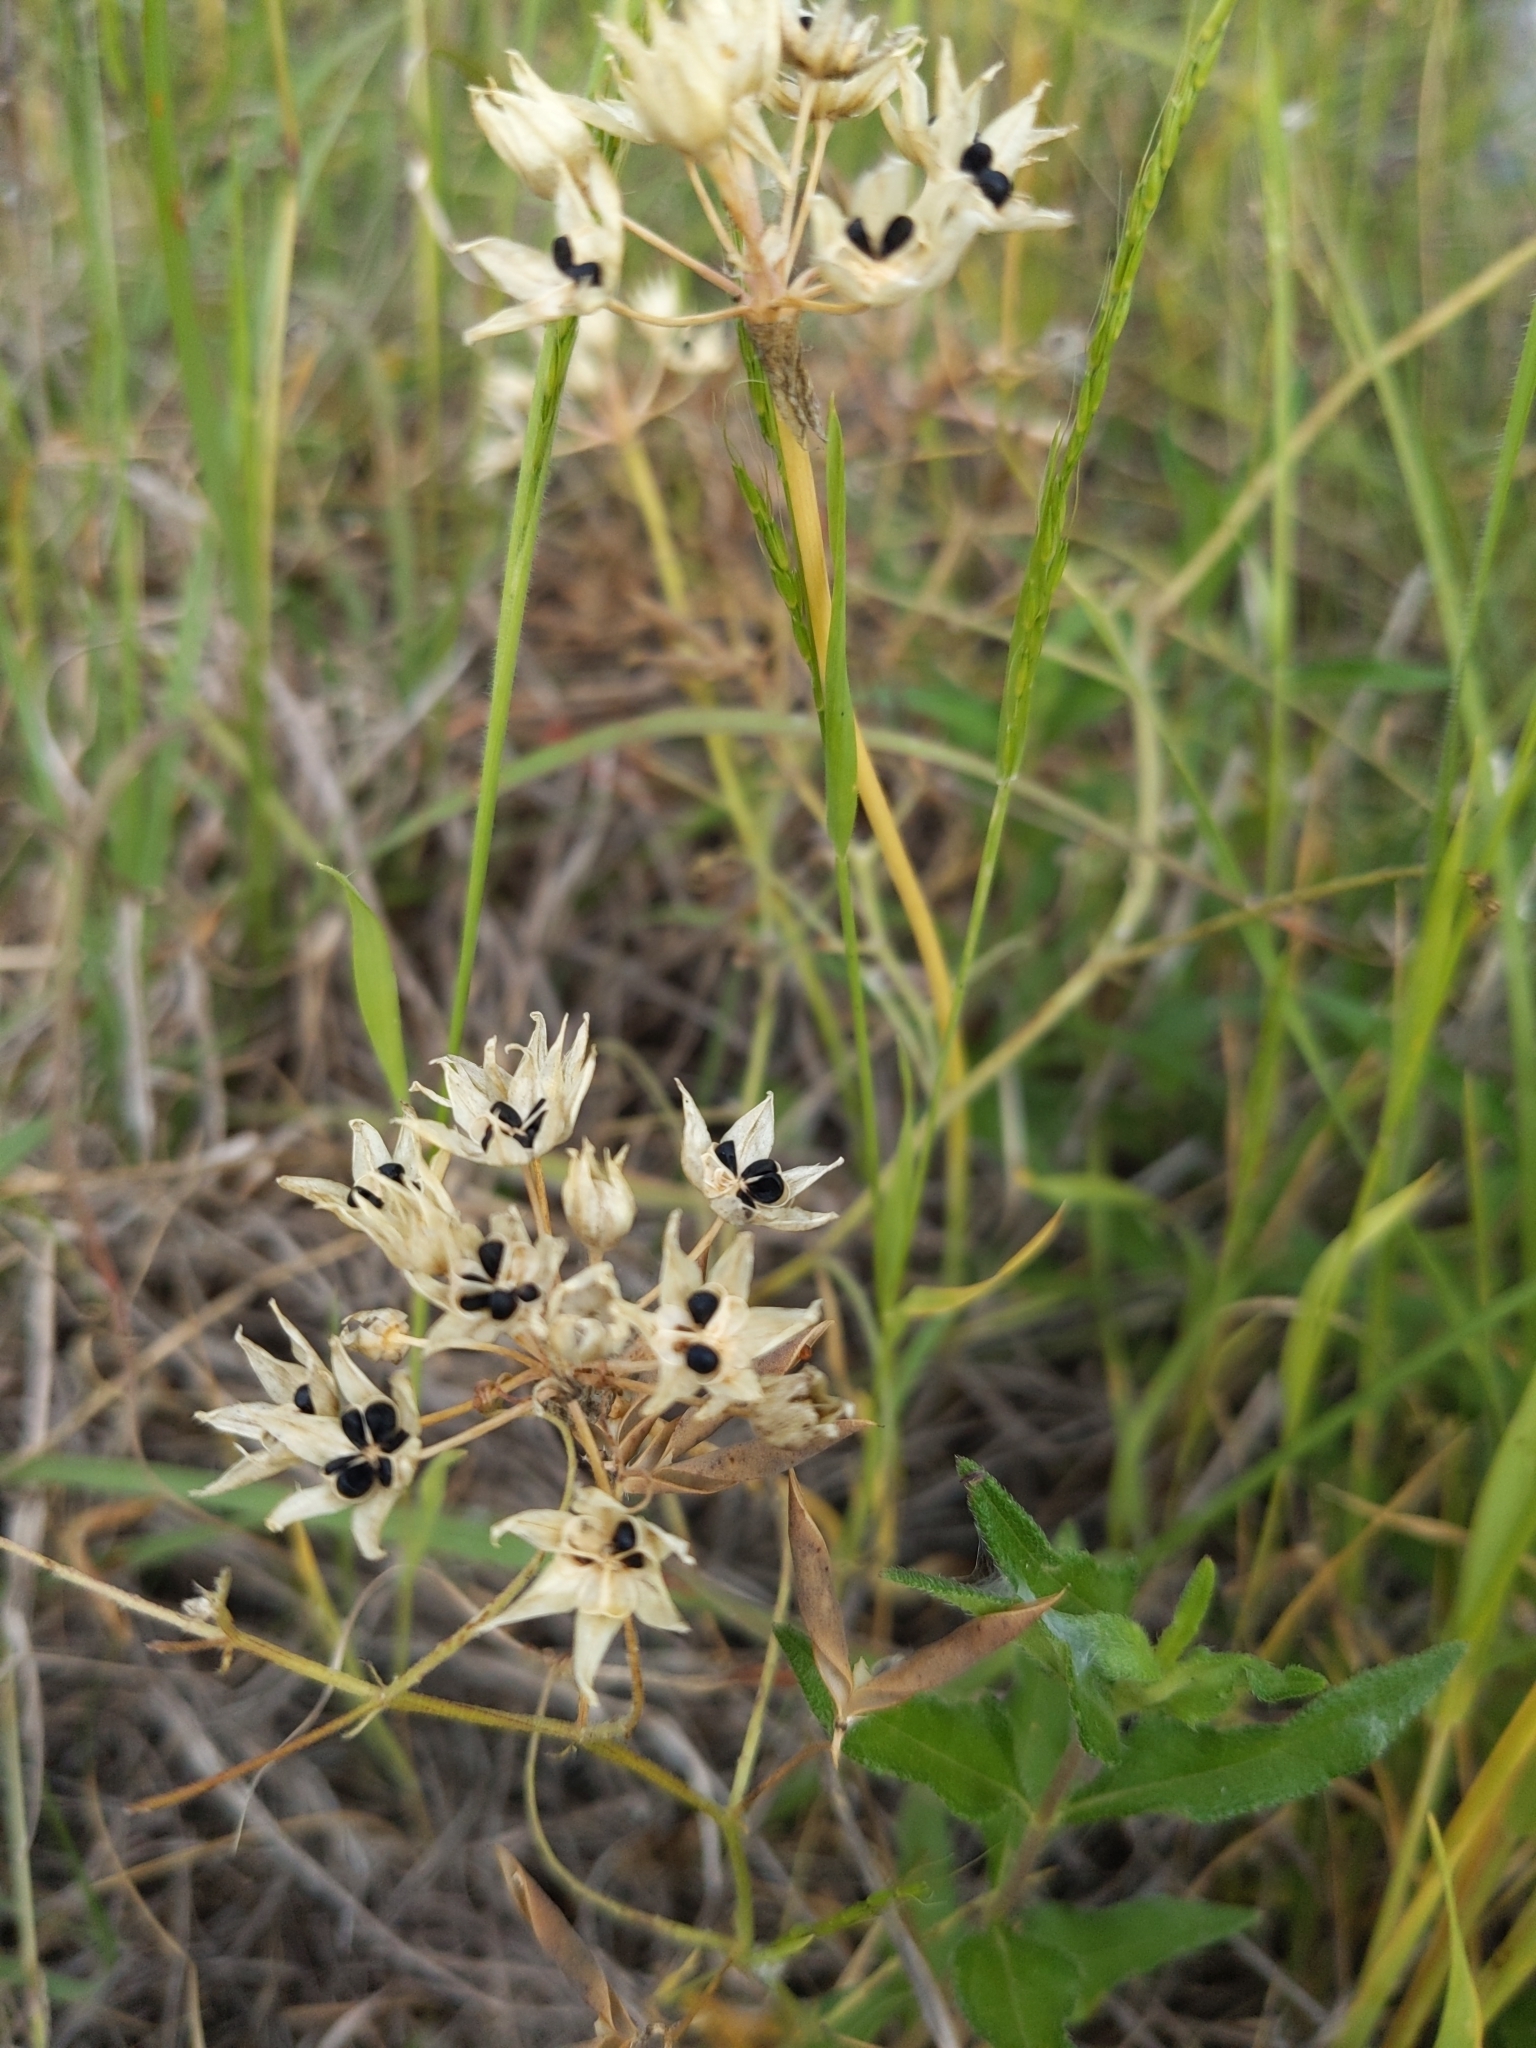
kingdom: Plantae
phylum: Tracheophyta
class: Liliopsida
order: Asparagales
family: Amaryllidaceae
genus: Allium
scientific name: Allium drummondii
